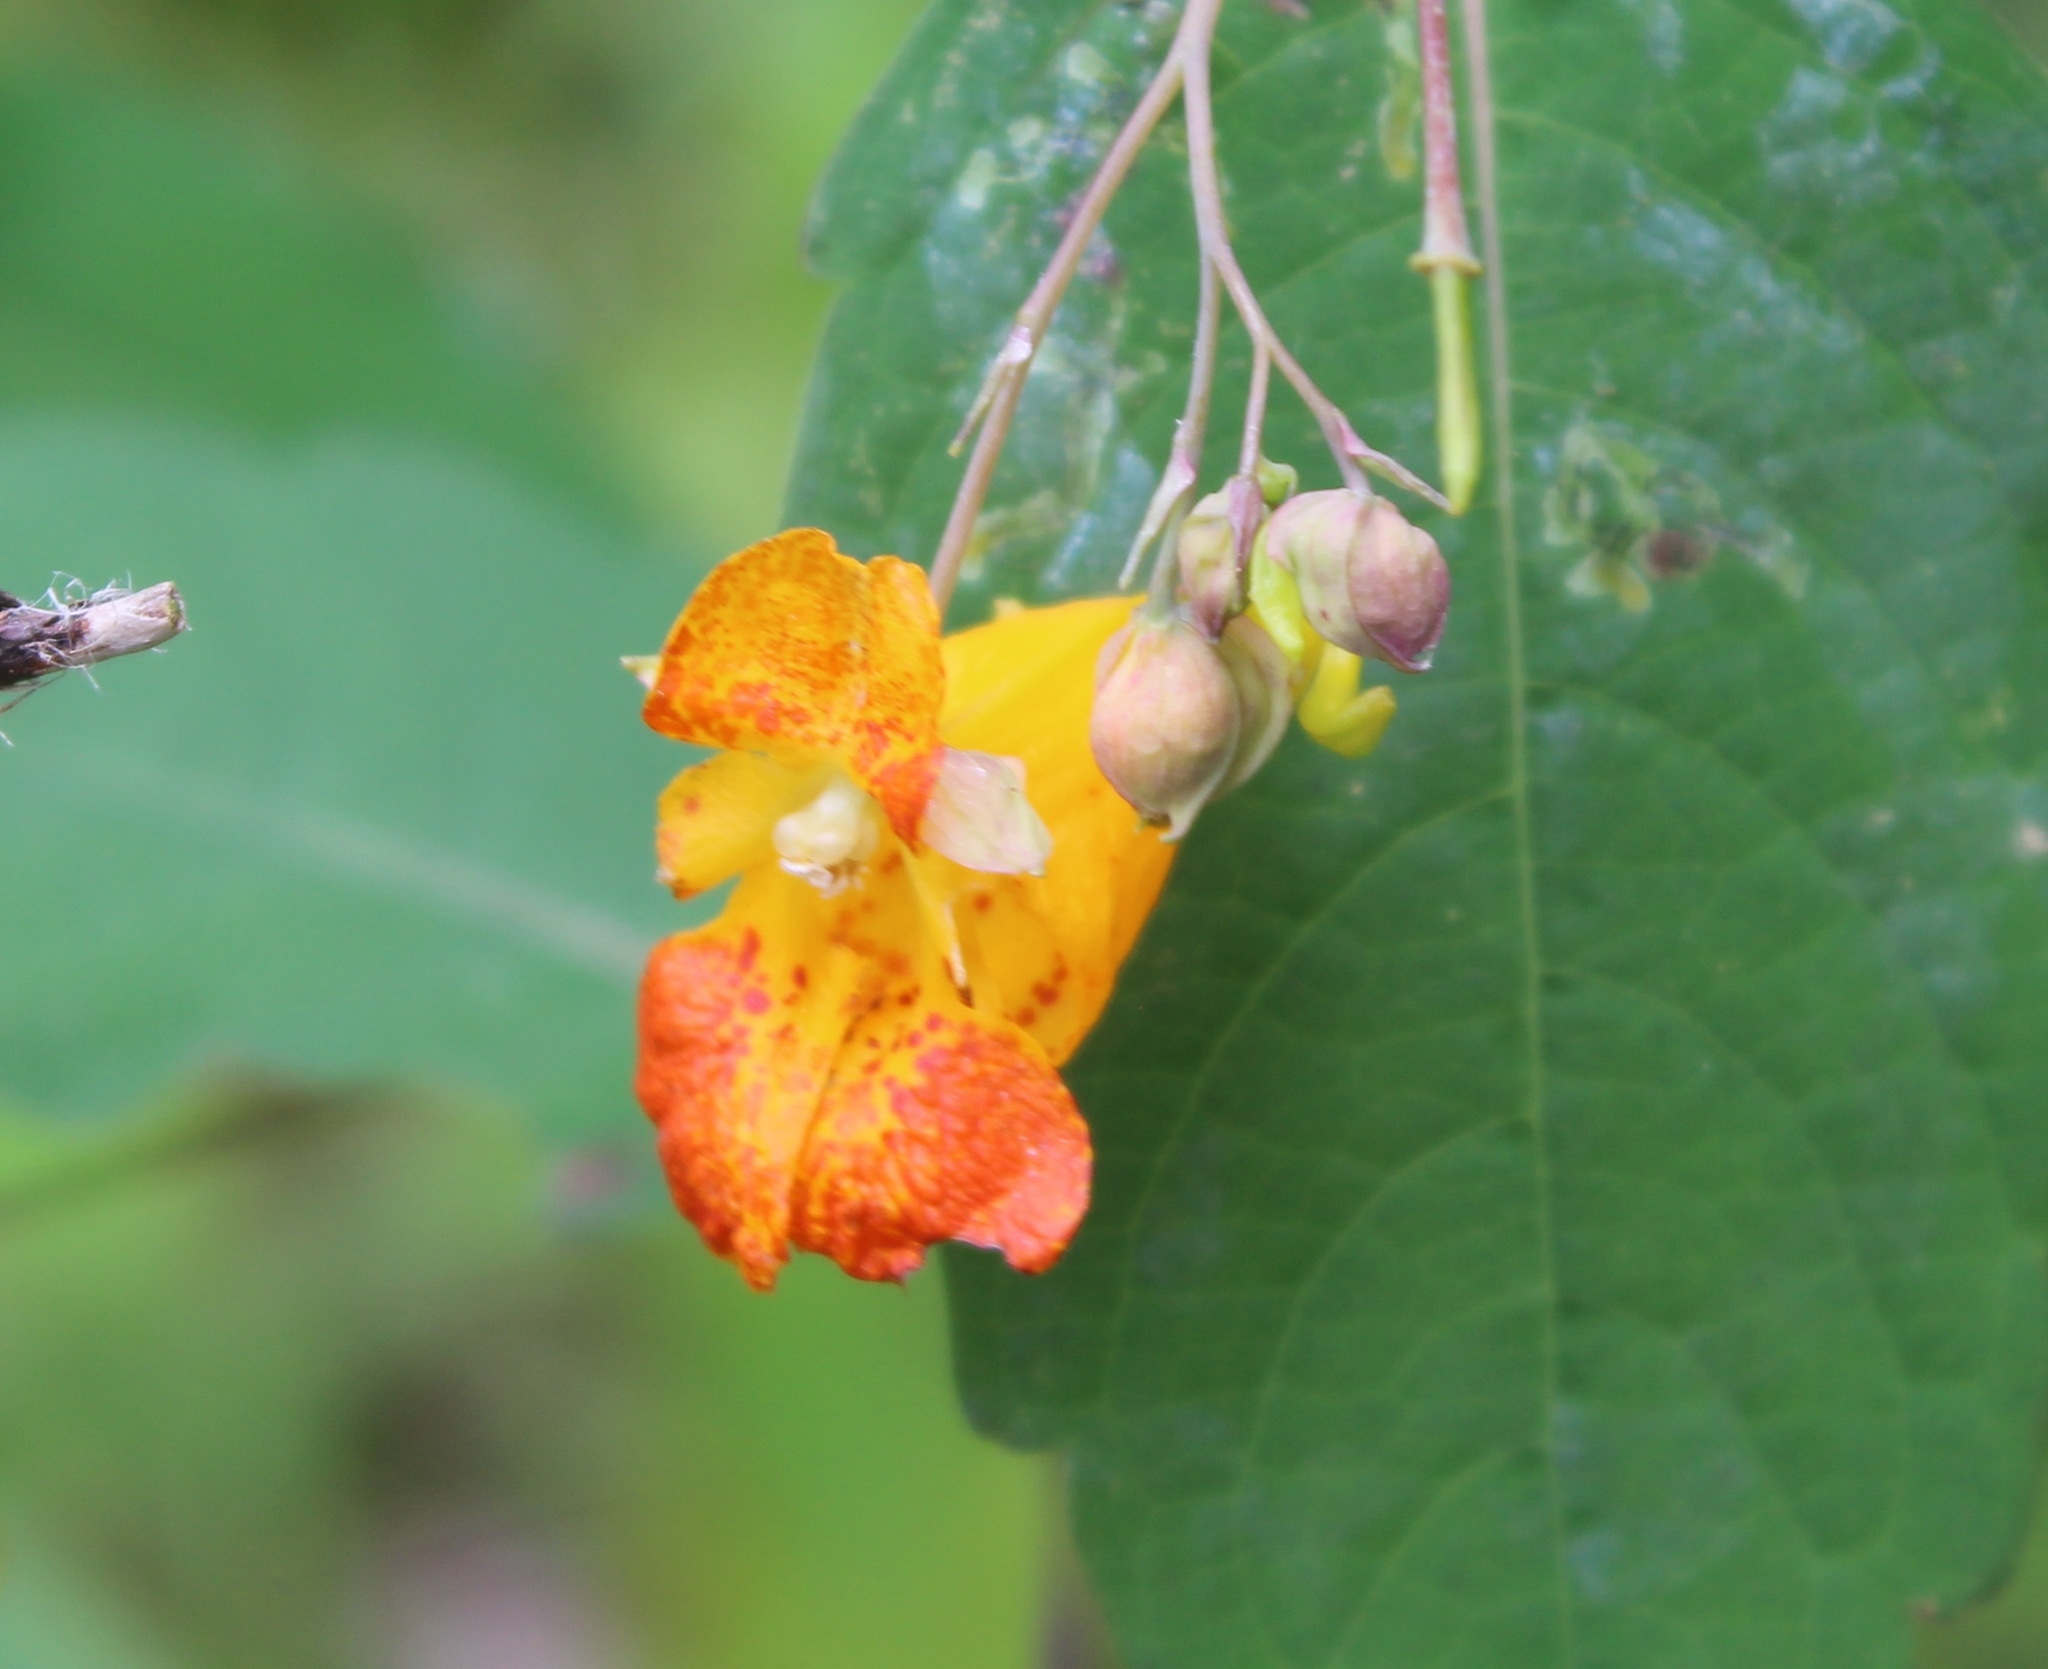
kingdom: Plantae
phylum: Tracheophyta
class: Magnoliopsida
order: Ericales
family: Balsaminaceae
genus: Impatiens
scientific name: Impatiens capensis
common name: Orange balsam
